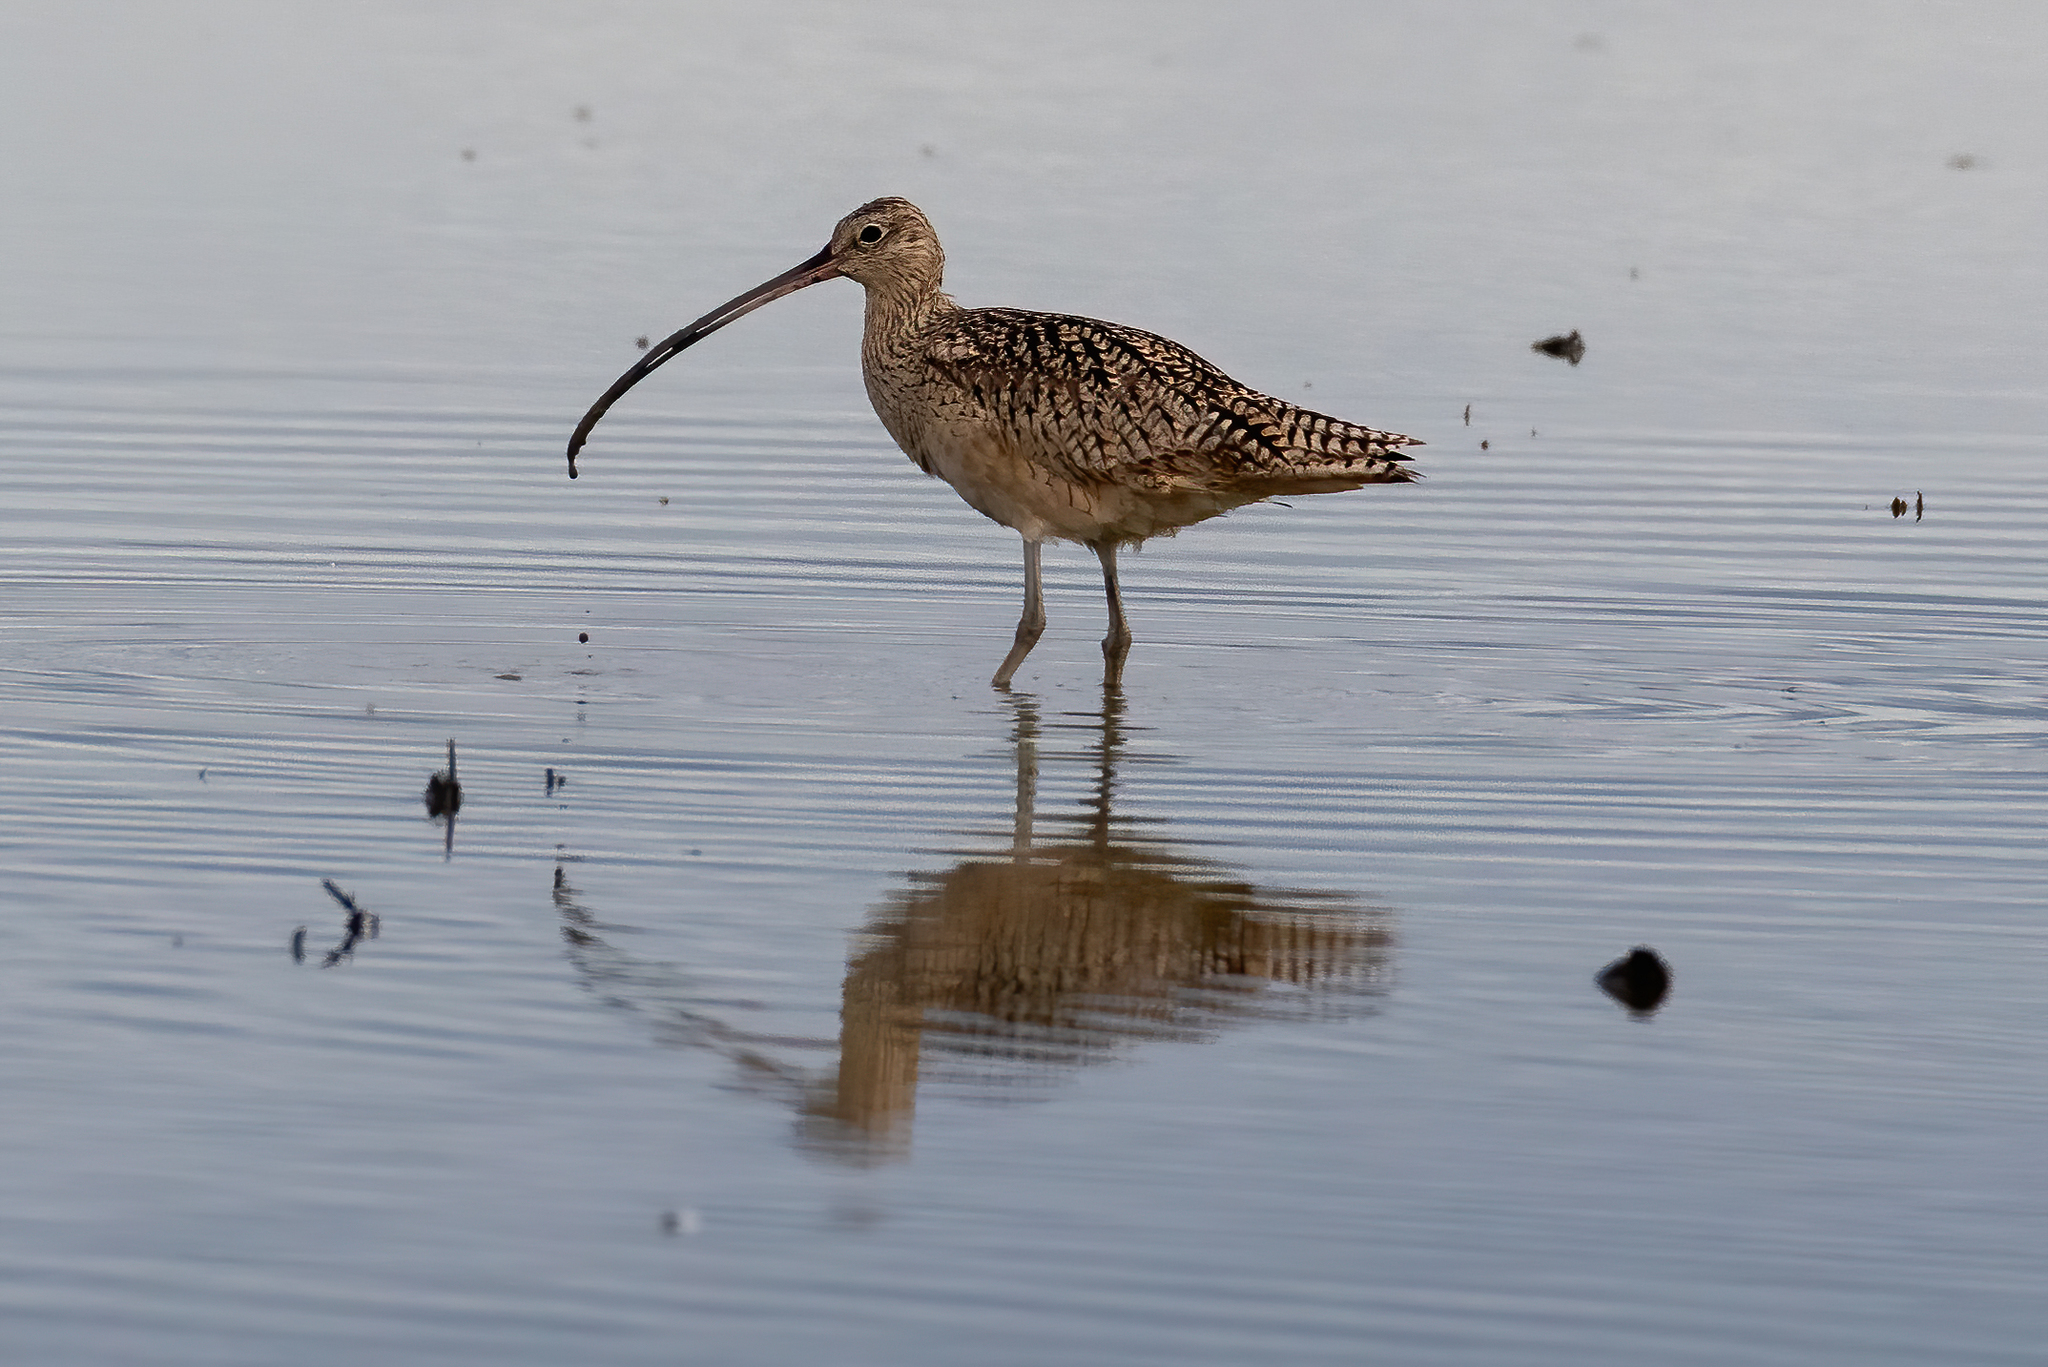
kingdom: Animalia
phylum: Chordata
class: Aves
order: Charadriiformes
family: Scolopacidae
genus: Numenius
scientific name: Numenius americanus
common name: Long-billed curlew
